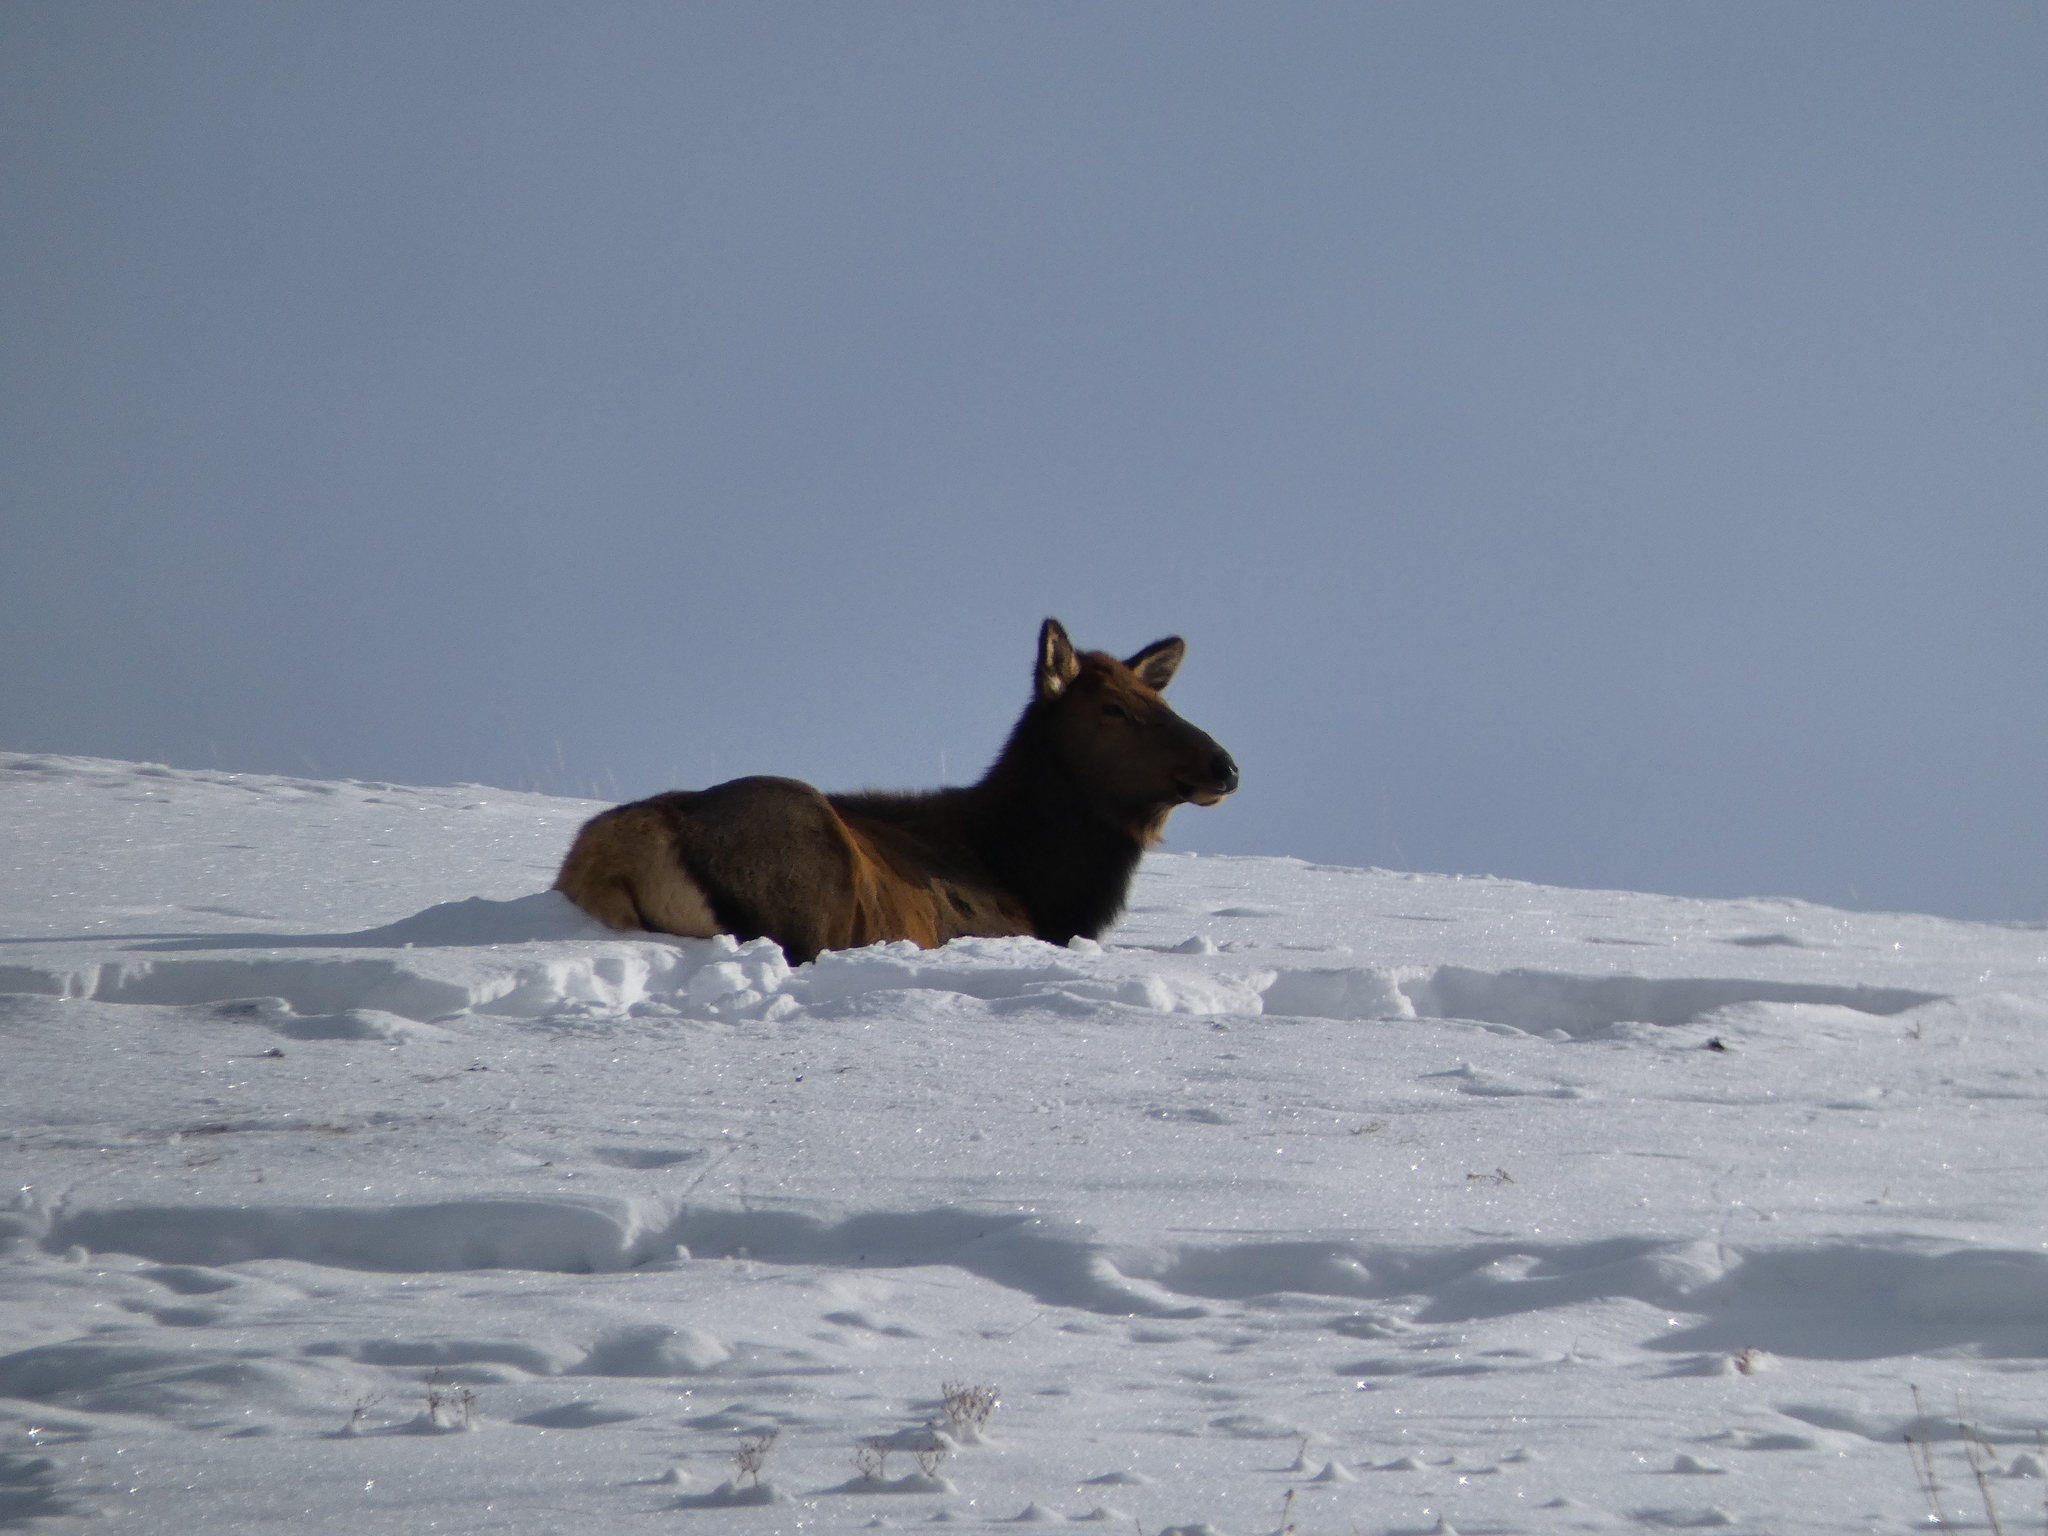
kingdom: Animalia
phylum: Chordata
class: Mammalia
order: Artiodactyla
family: Cervidae
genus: Cervus
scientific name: Cervus elaphus
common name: Red deer
